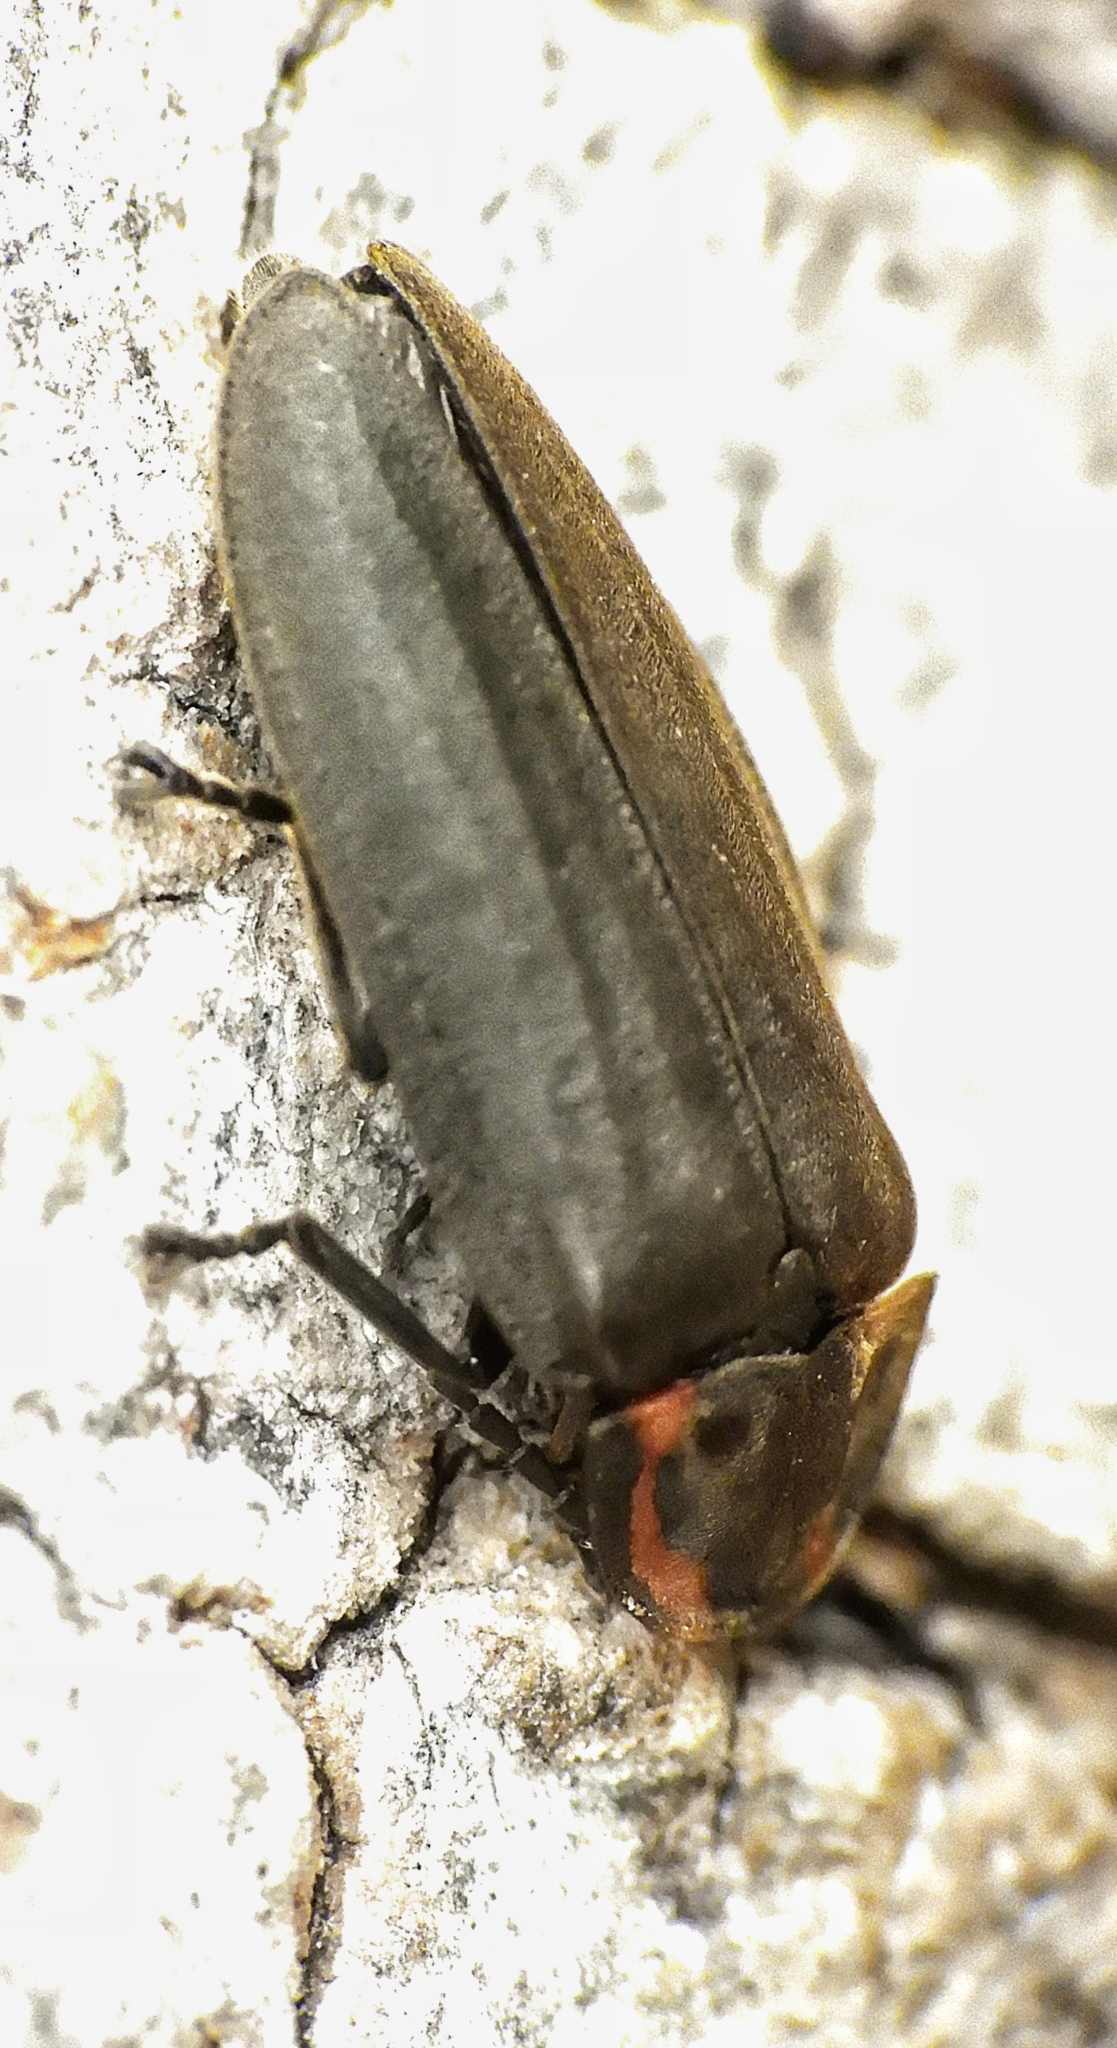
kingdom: Animalia
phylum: Arthropoda
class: Insecta
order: Coleoptera
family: Lampyridae
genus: Photinus
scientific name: Photinus corrusca
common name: Winter firefly
